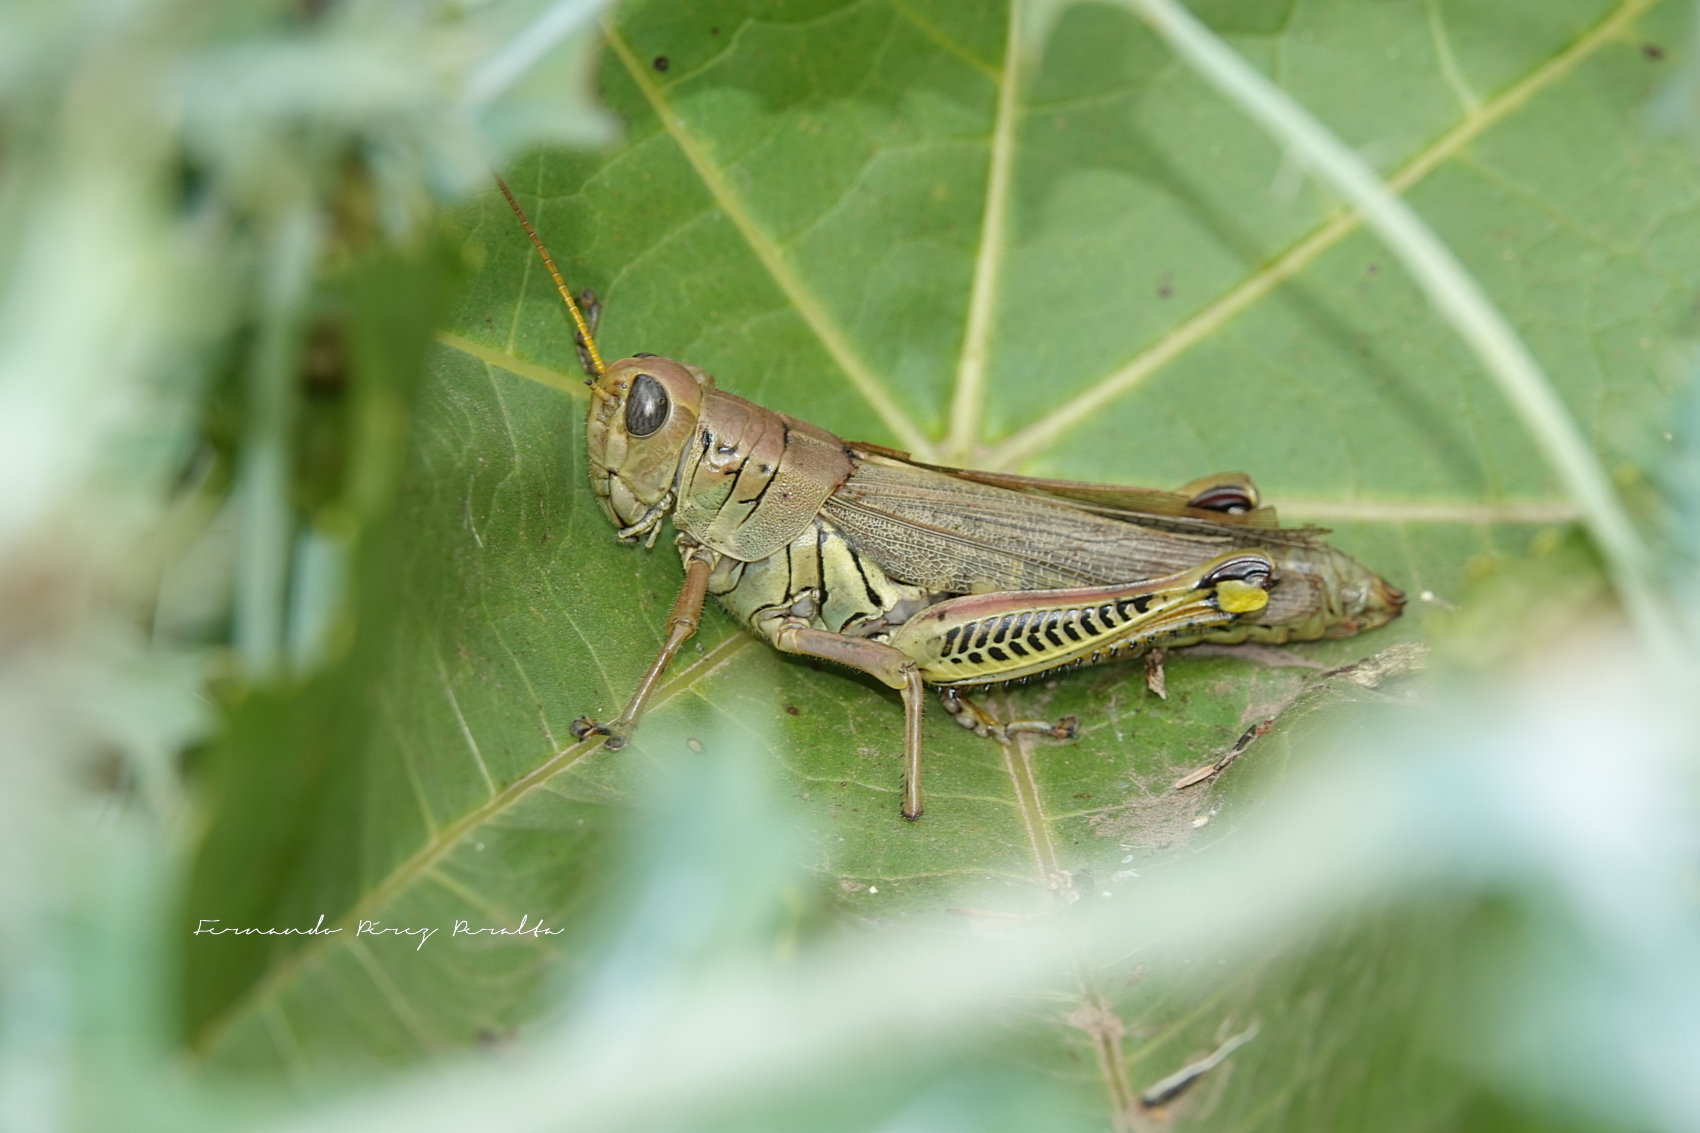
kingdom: Animalia
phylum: Arthropoda
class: Insecta
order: Orthoptera
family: Acrididae
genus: Melanoplus
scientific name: Melanoplus differentialis
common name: Differential grasshopper
